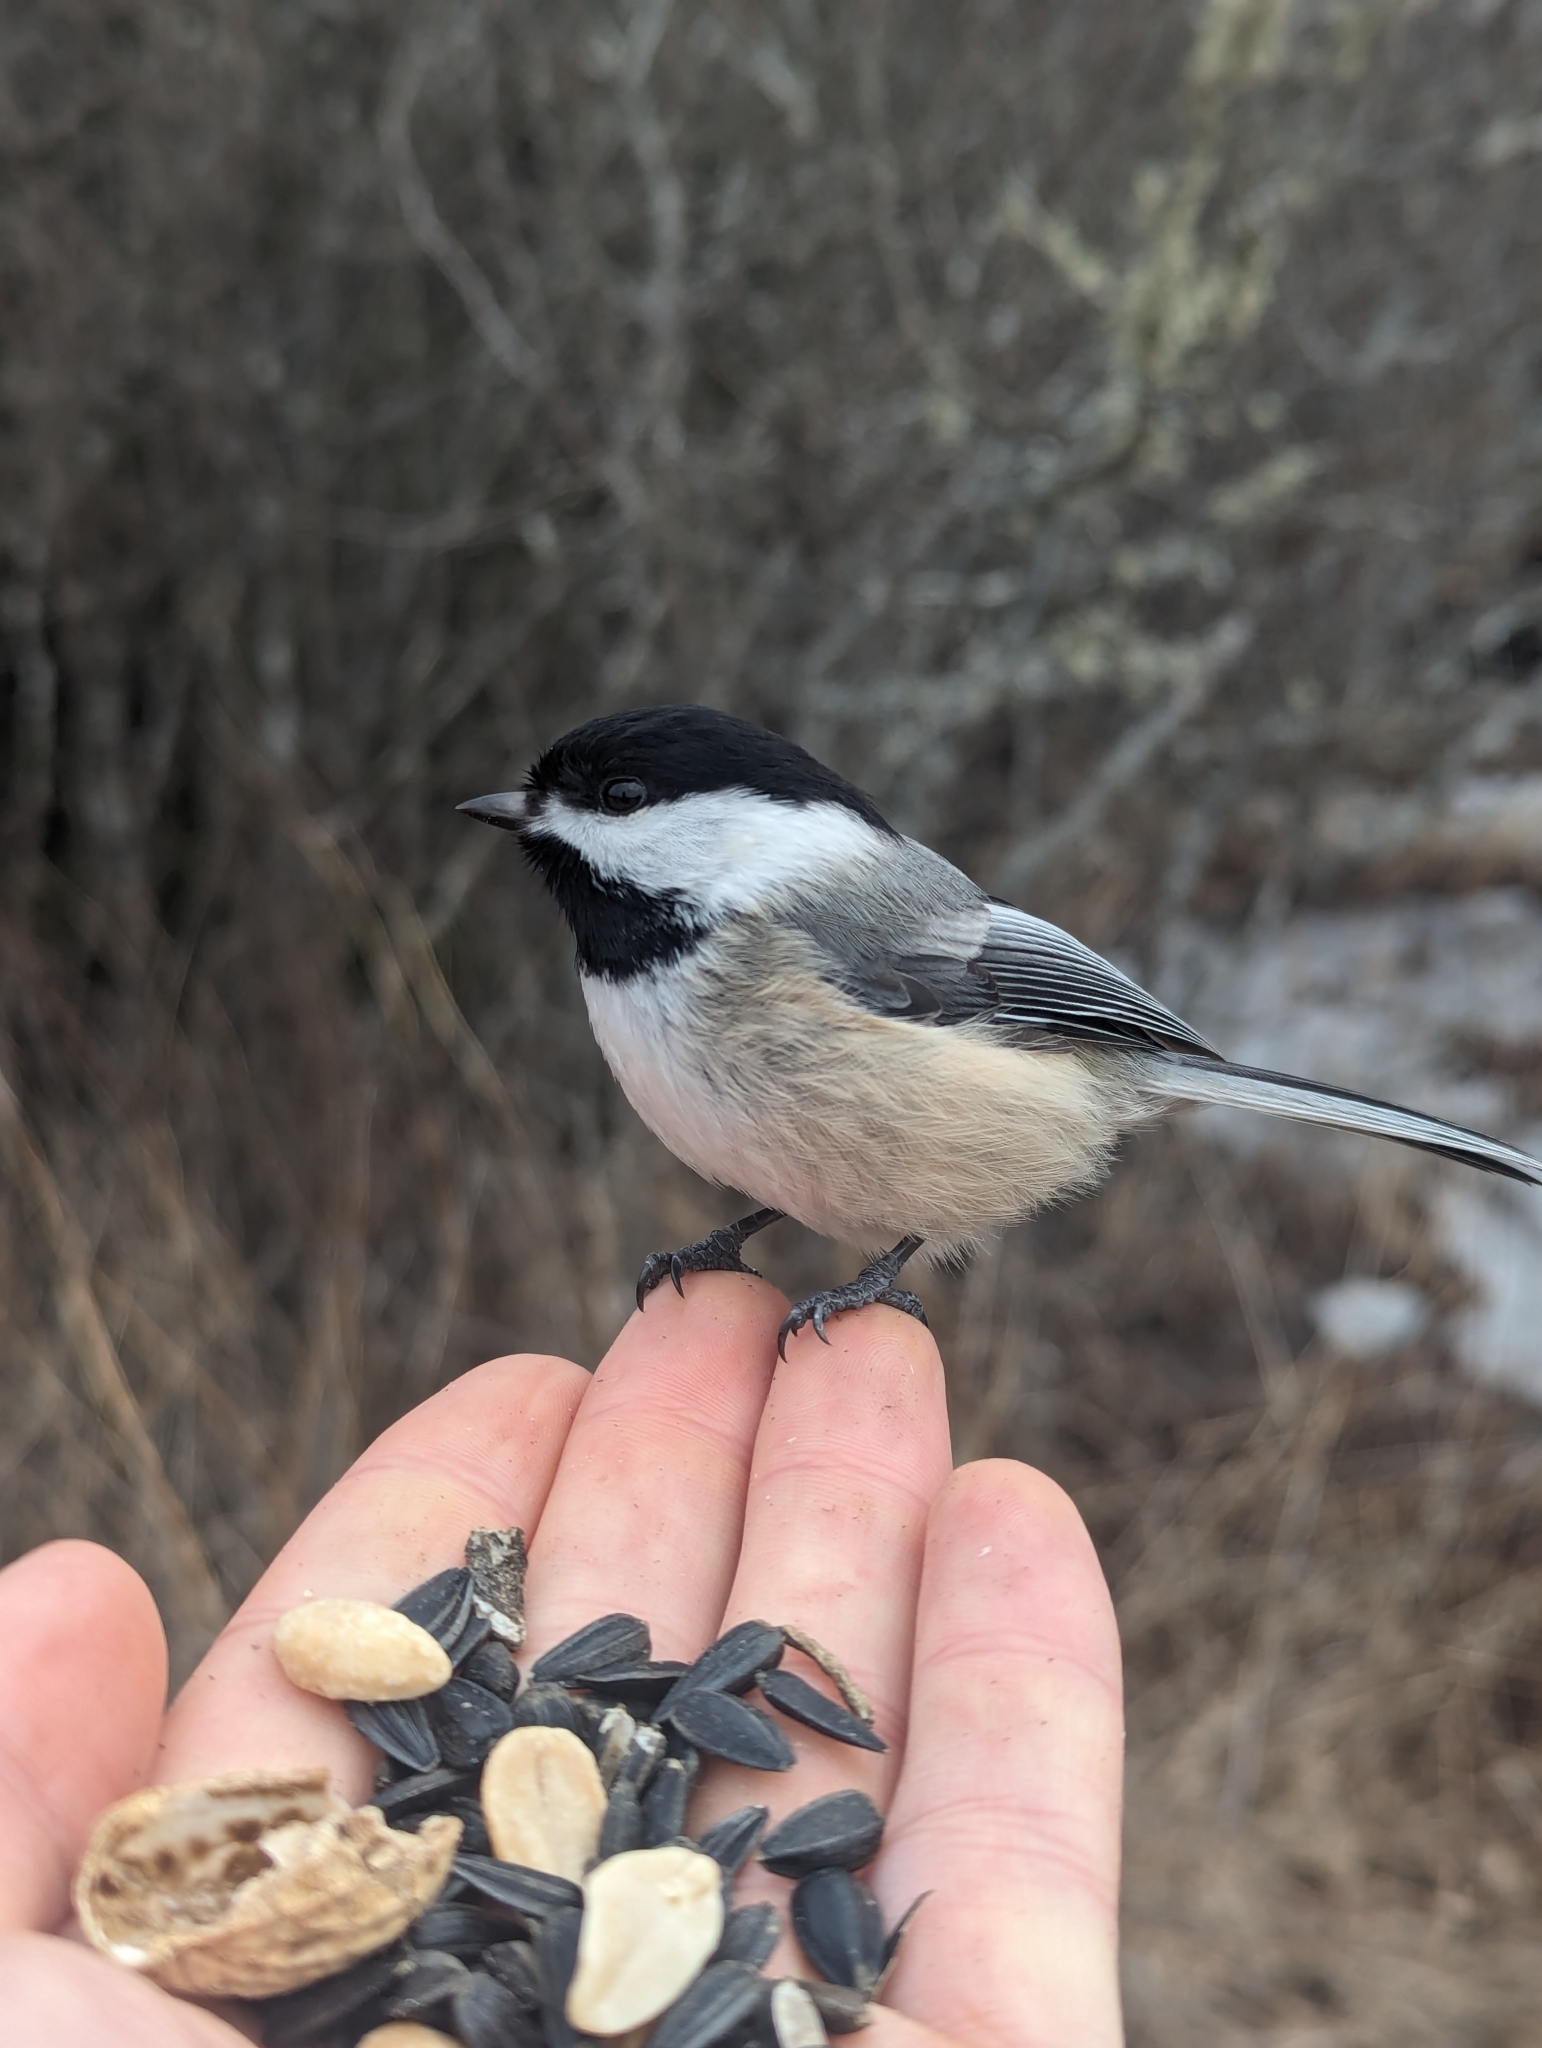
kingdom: Animalia
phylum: Chordata
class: Aves
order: Passeriformes
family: Paridae
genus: Poecile
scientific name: Poecile atricapillus
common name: Black-capped chickadee
